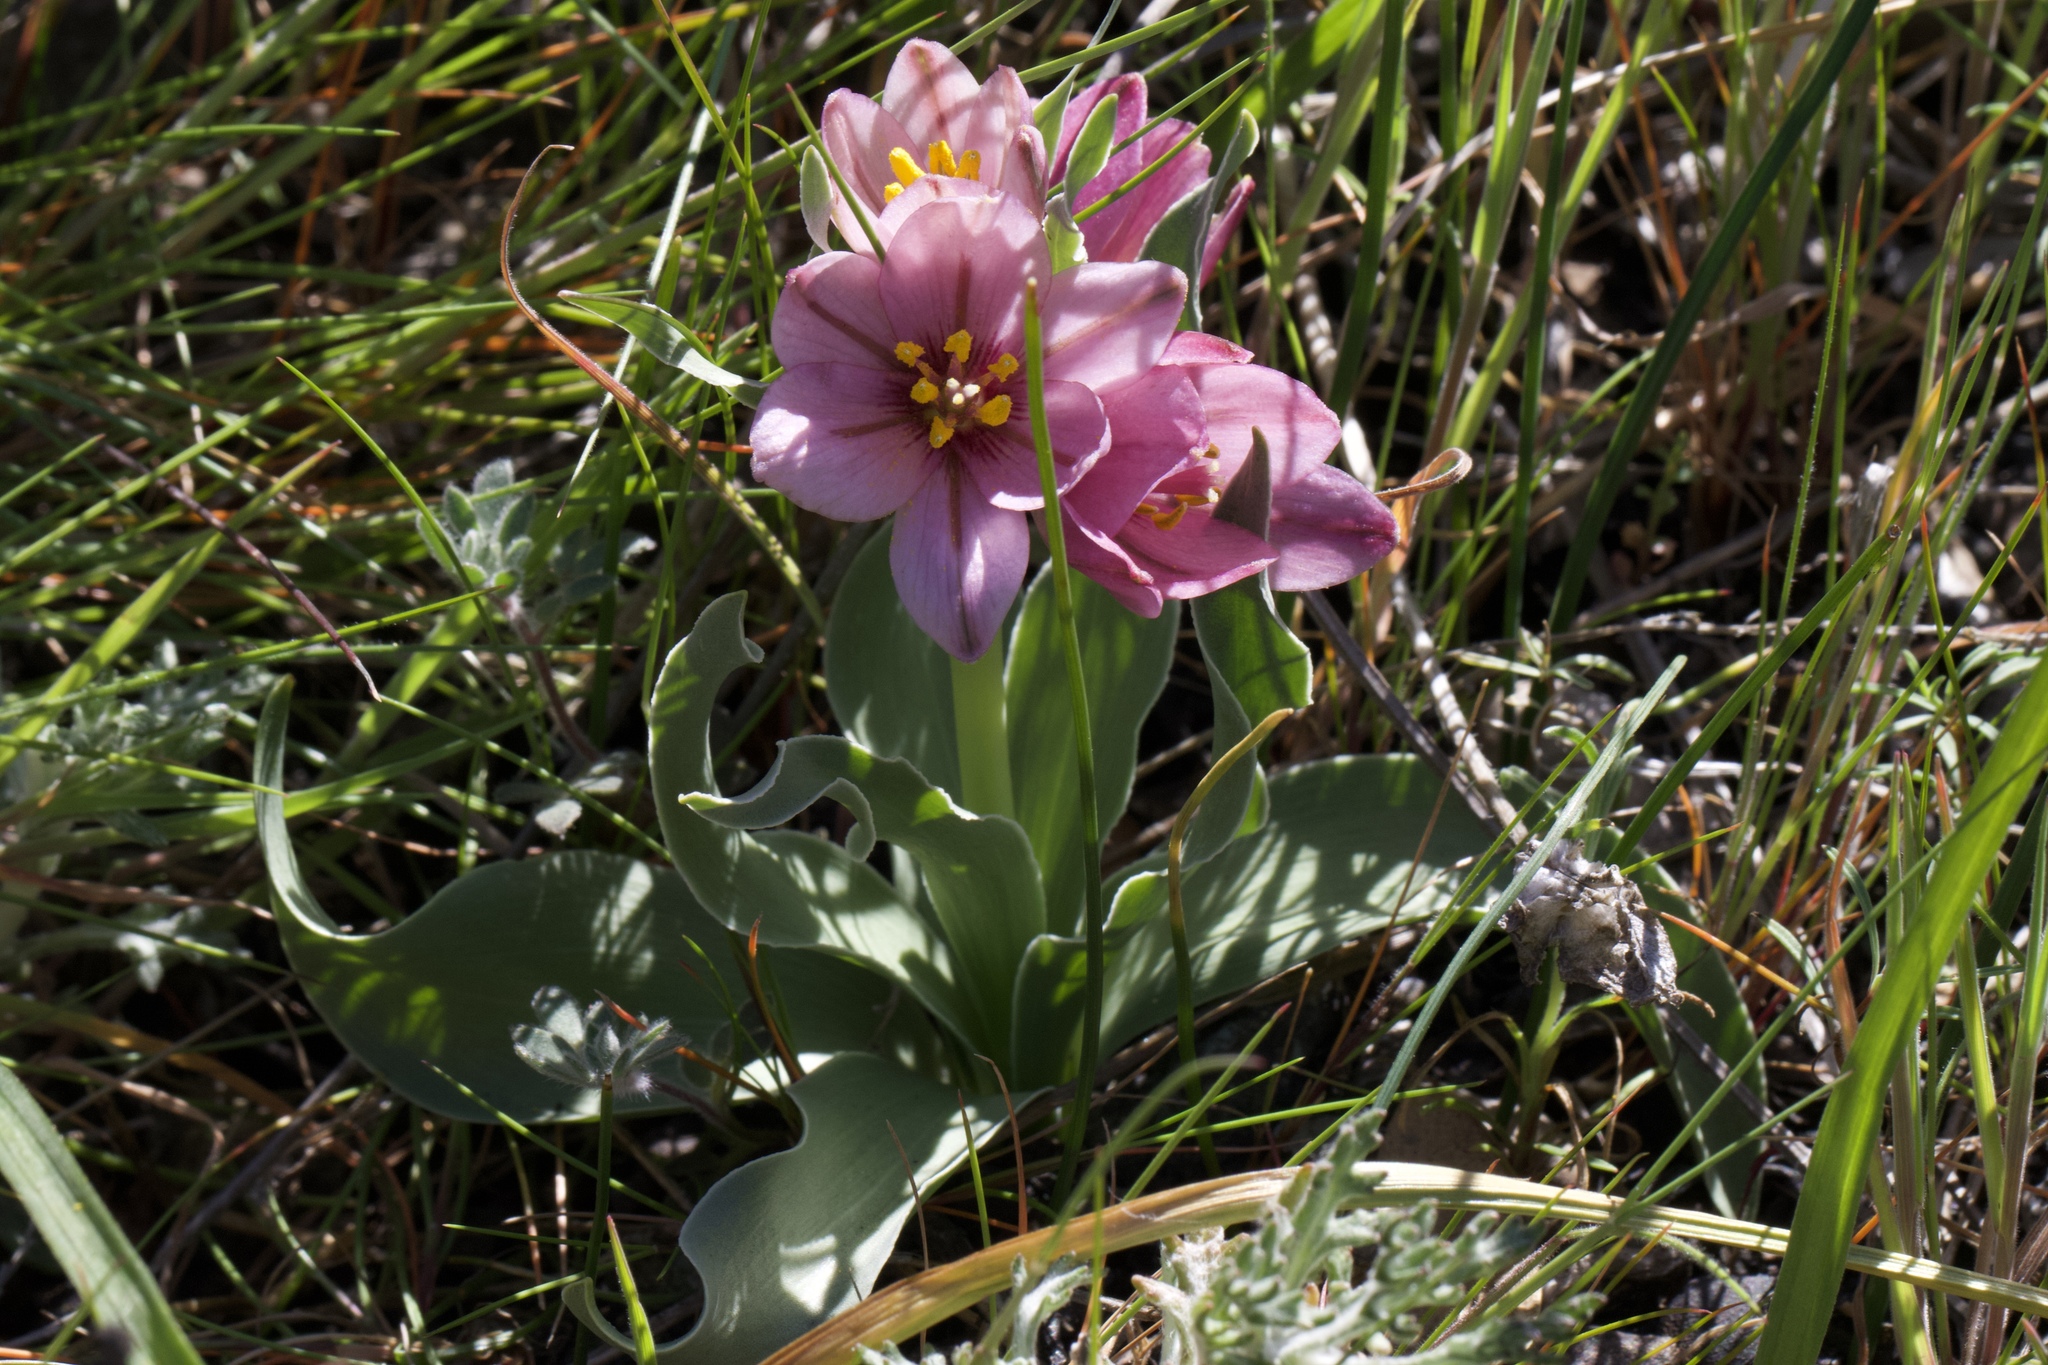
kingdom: Plantae
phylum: Tracheophyta
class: Liliopsida
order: Liliales
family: Liliaceae
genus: Fritillaria
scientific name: Fritillaria pluriflora
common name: Adobe-lily
